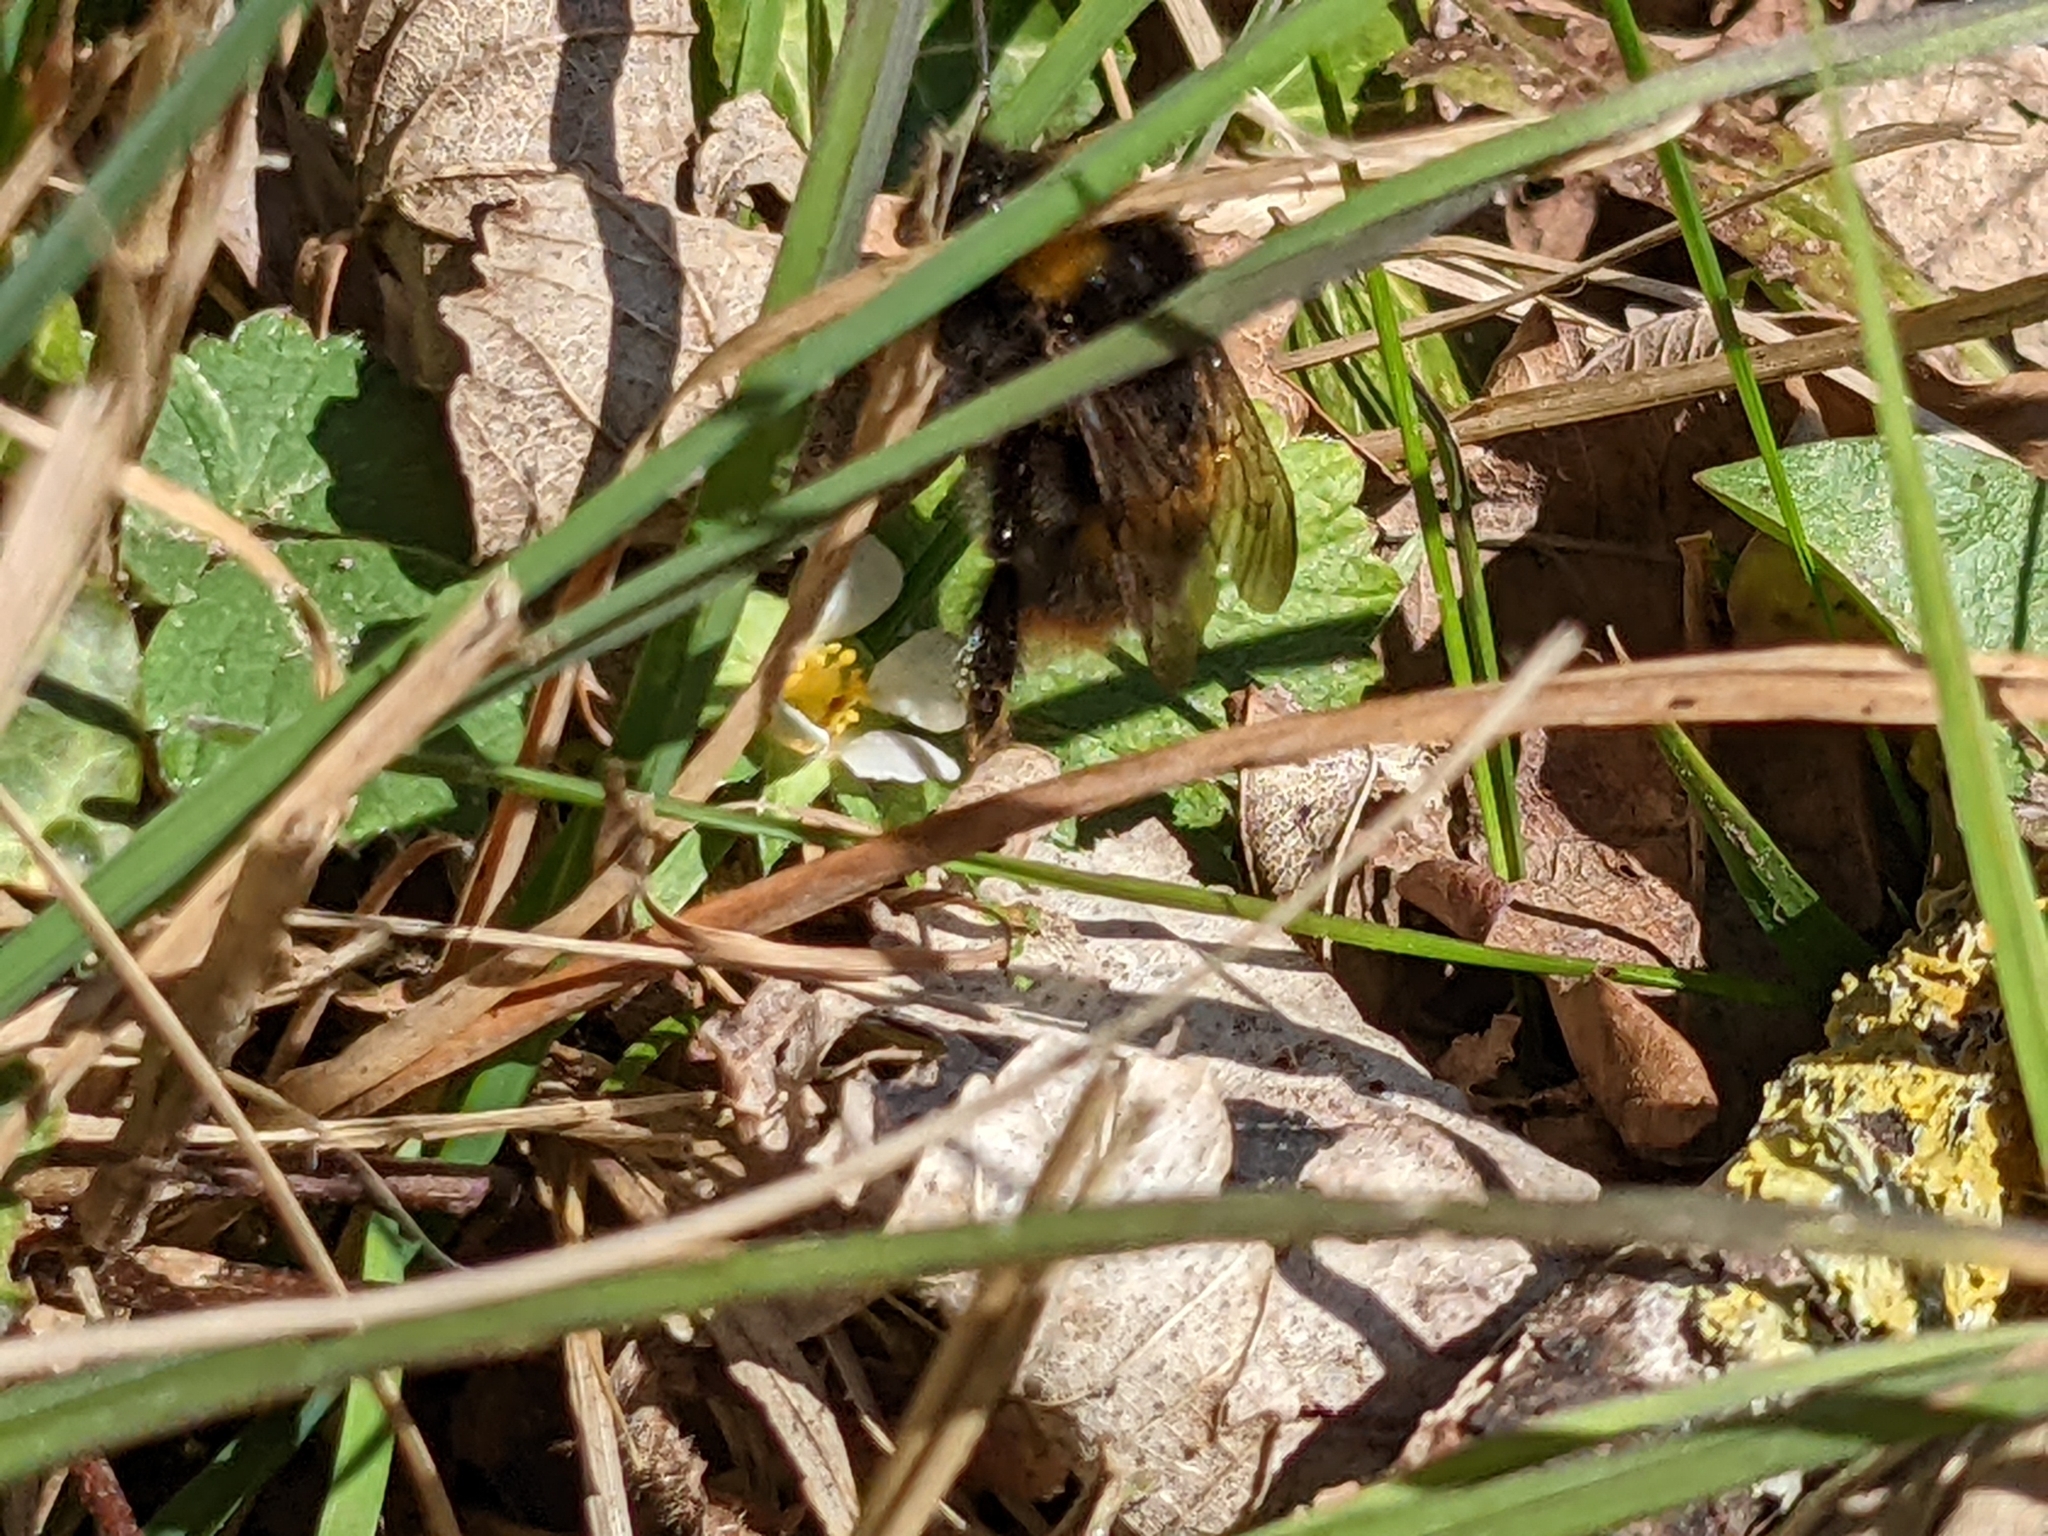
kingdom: Animalia
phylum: Arthropoda
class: Insecta
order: Hymenoptera
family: Apidae
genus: Bombus
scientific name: Bombus pratorum
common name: Early humble-bee
